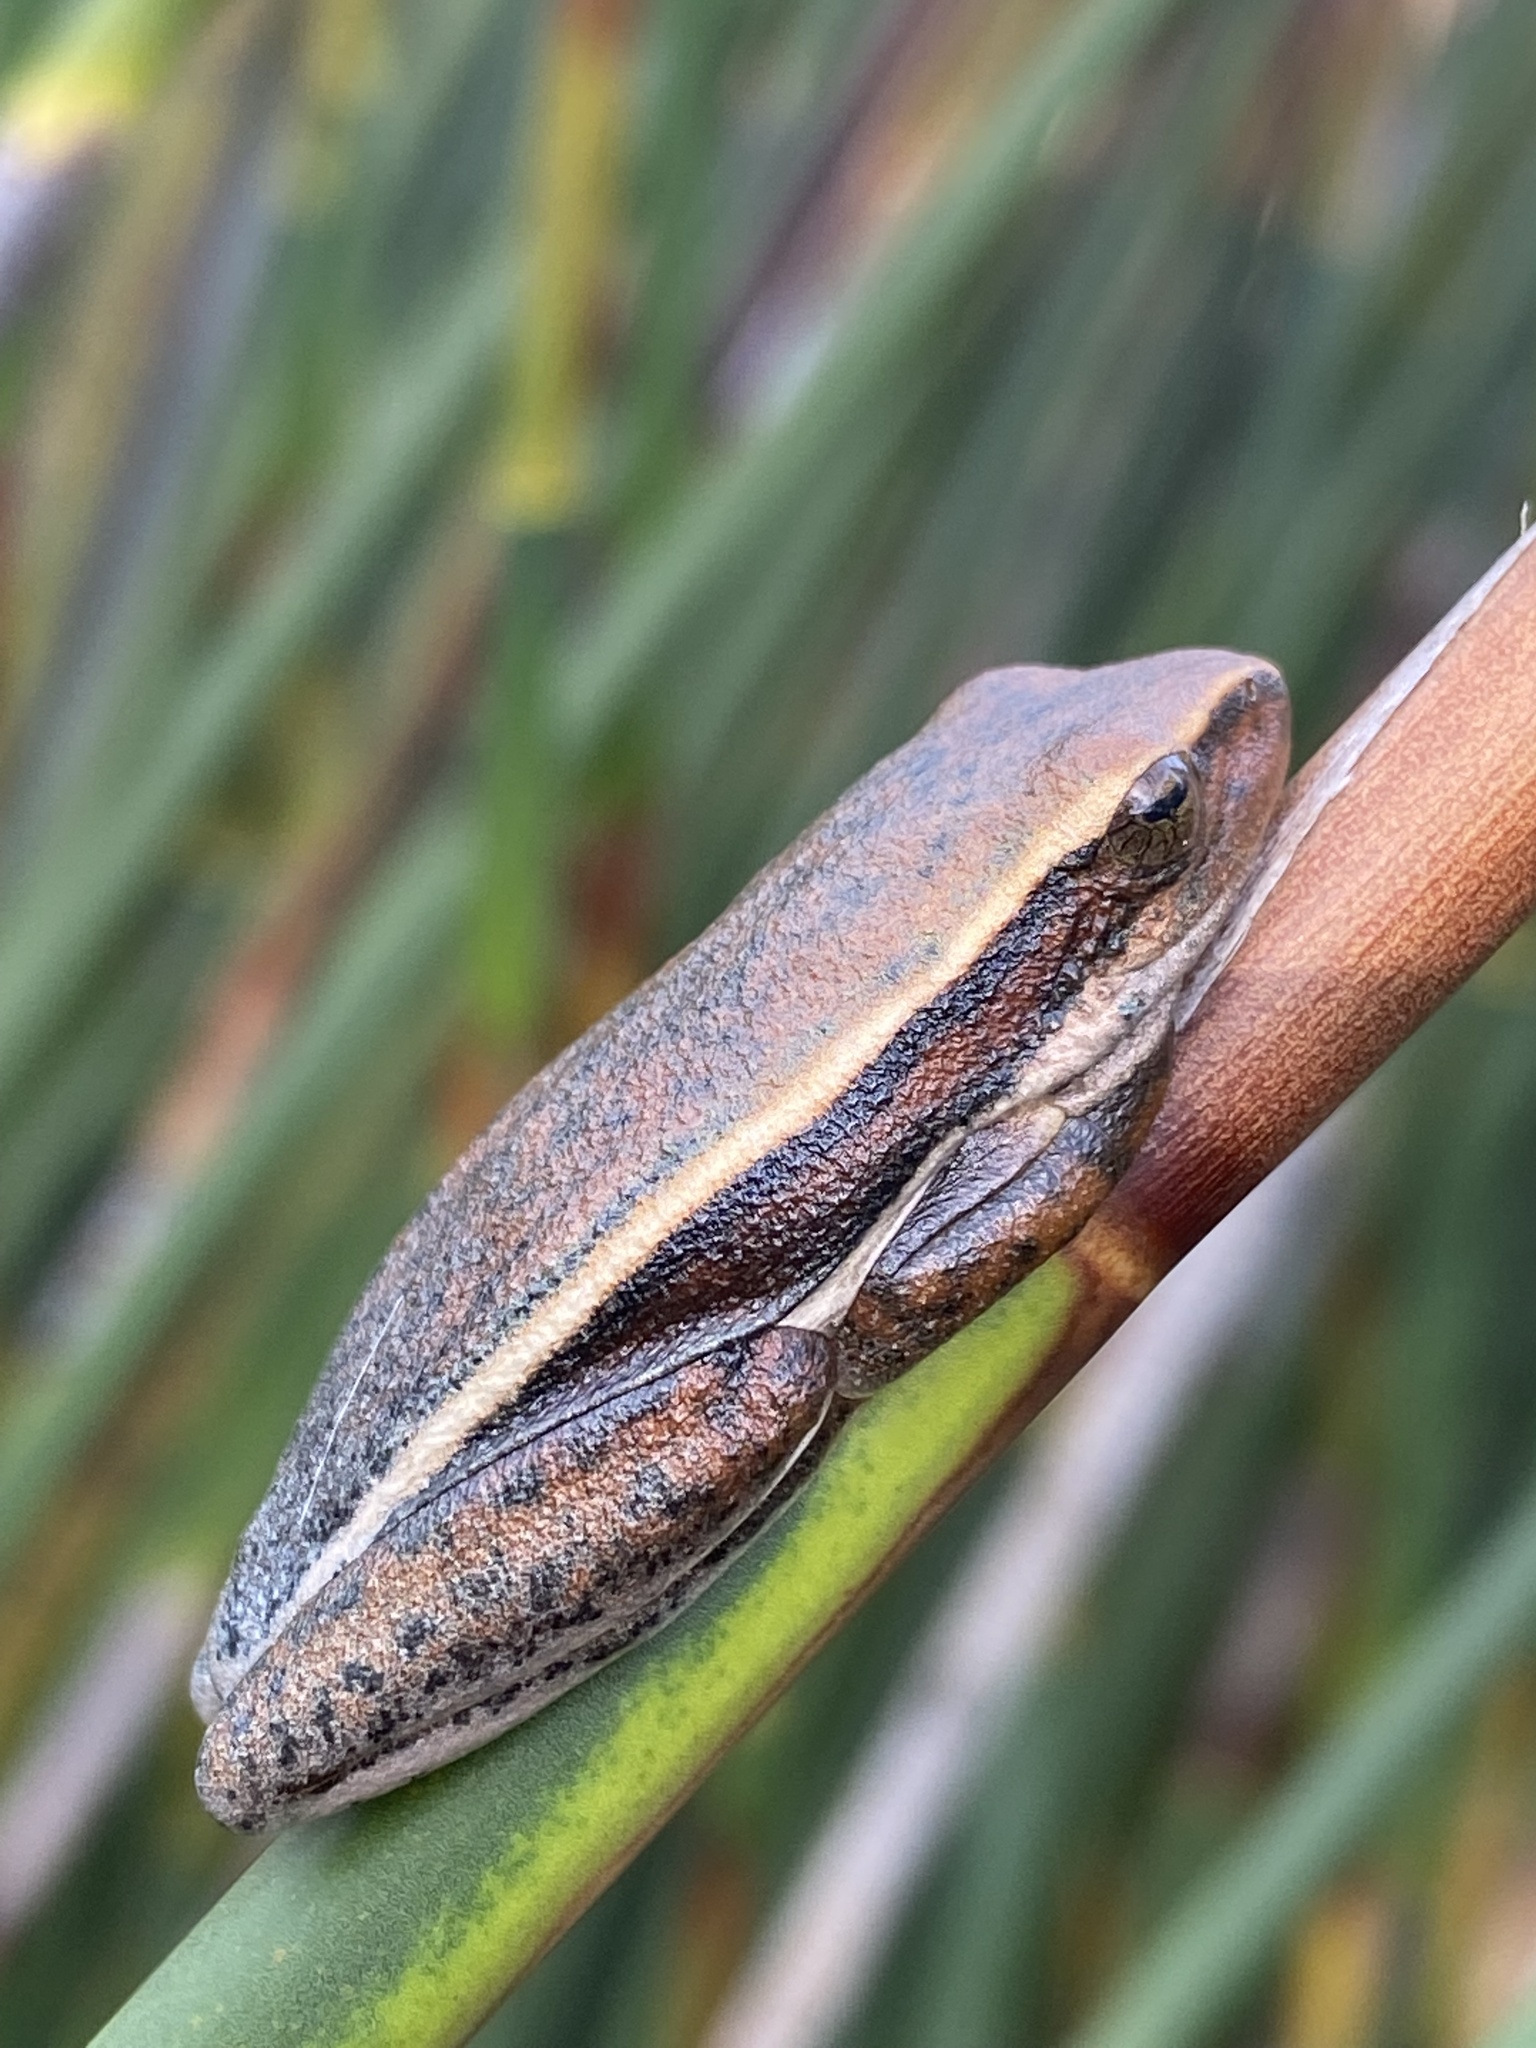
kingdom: Animalia
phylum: Chordata
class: Amphibia
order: Anura
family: Hyperoliidae
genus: Hyperolius
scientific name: Hyperolius horstockii
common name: Arum lily frog
